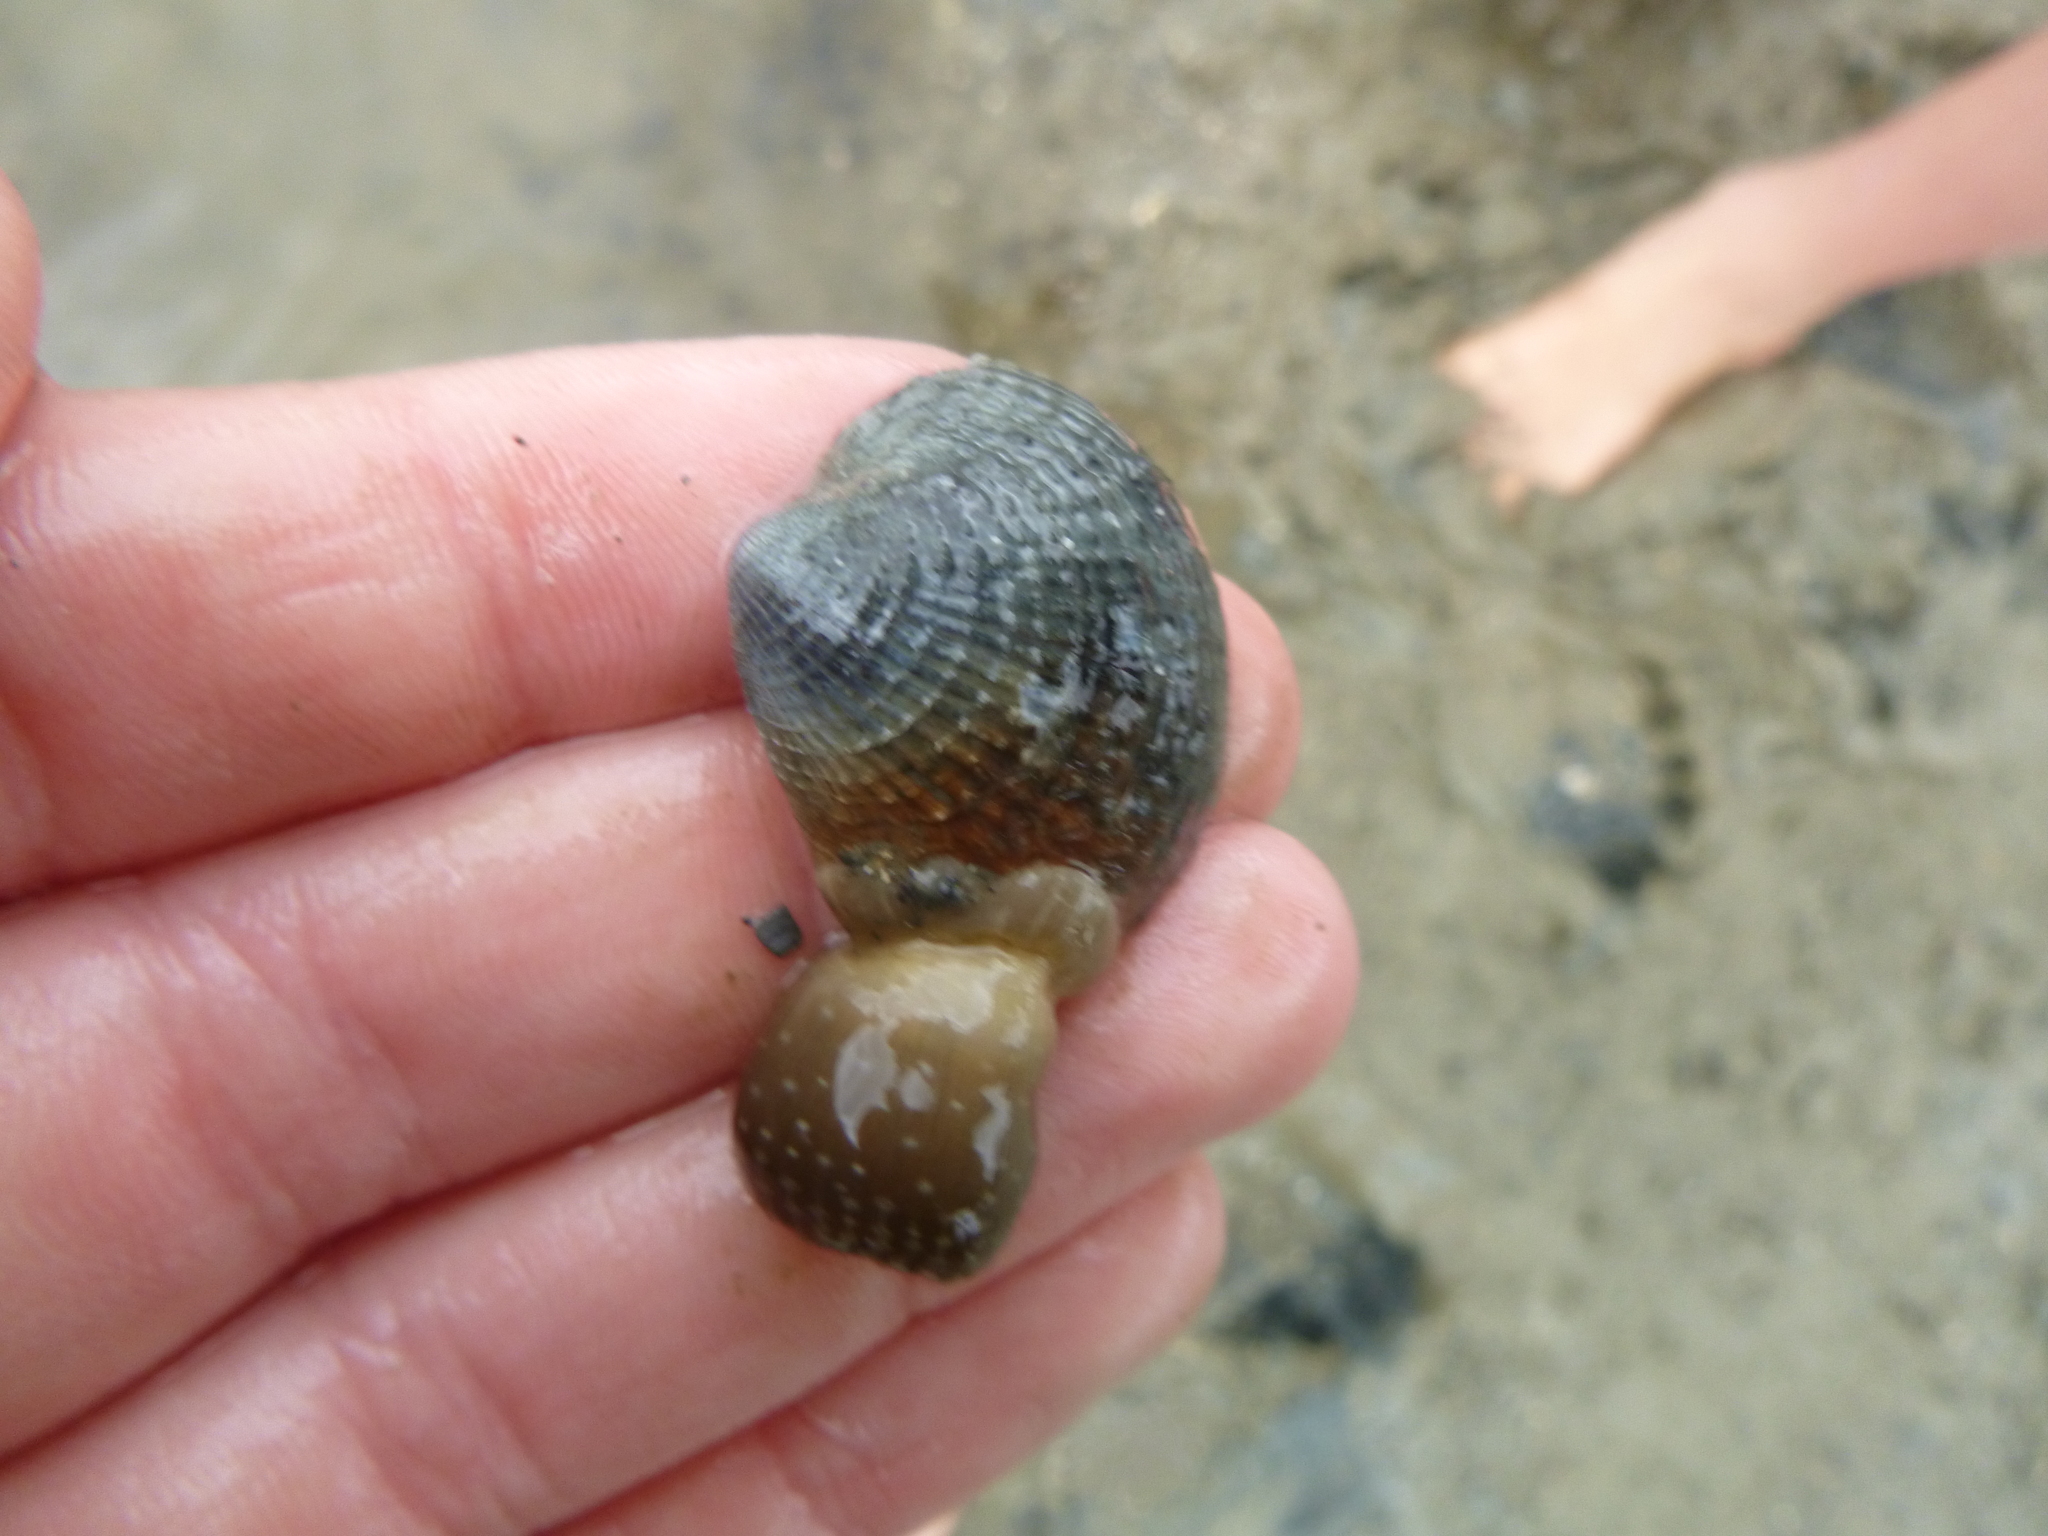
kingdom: Animalia
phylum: Mollusca
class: Bivalvia
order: Venerida
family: Veneridae
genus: Austrovenus
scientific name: Austrovenus stutchburyi
